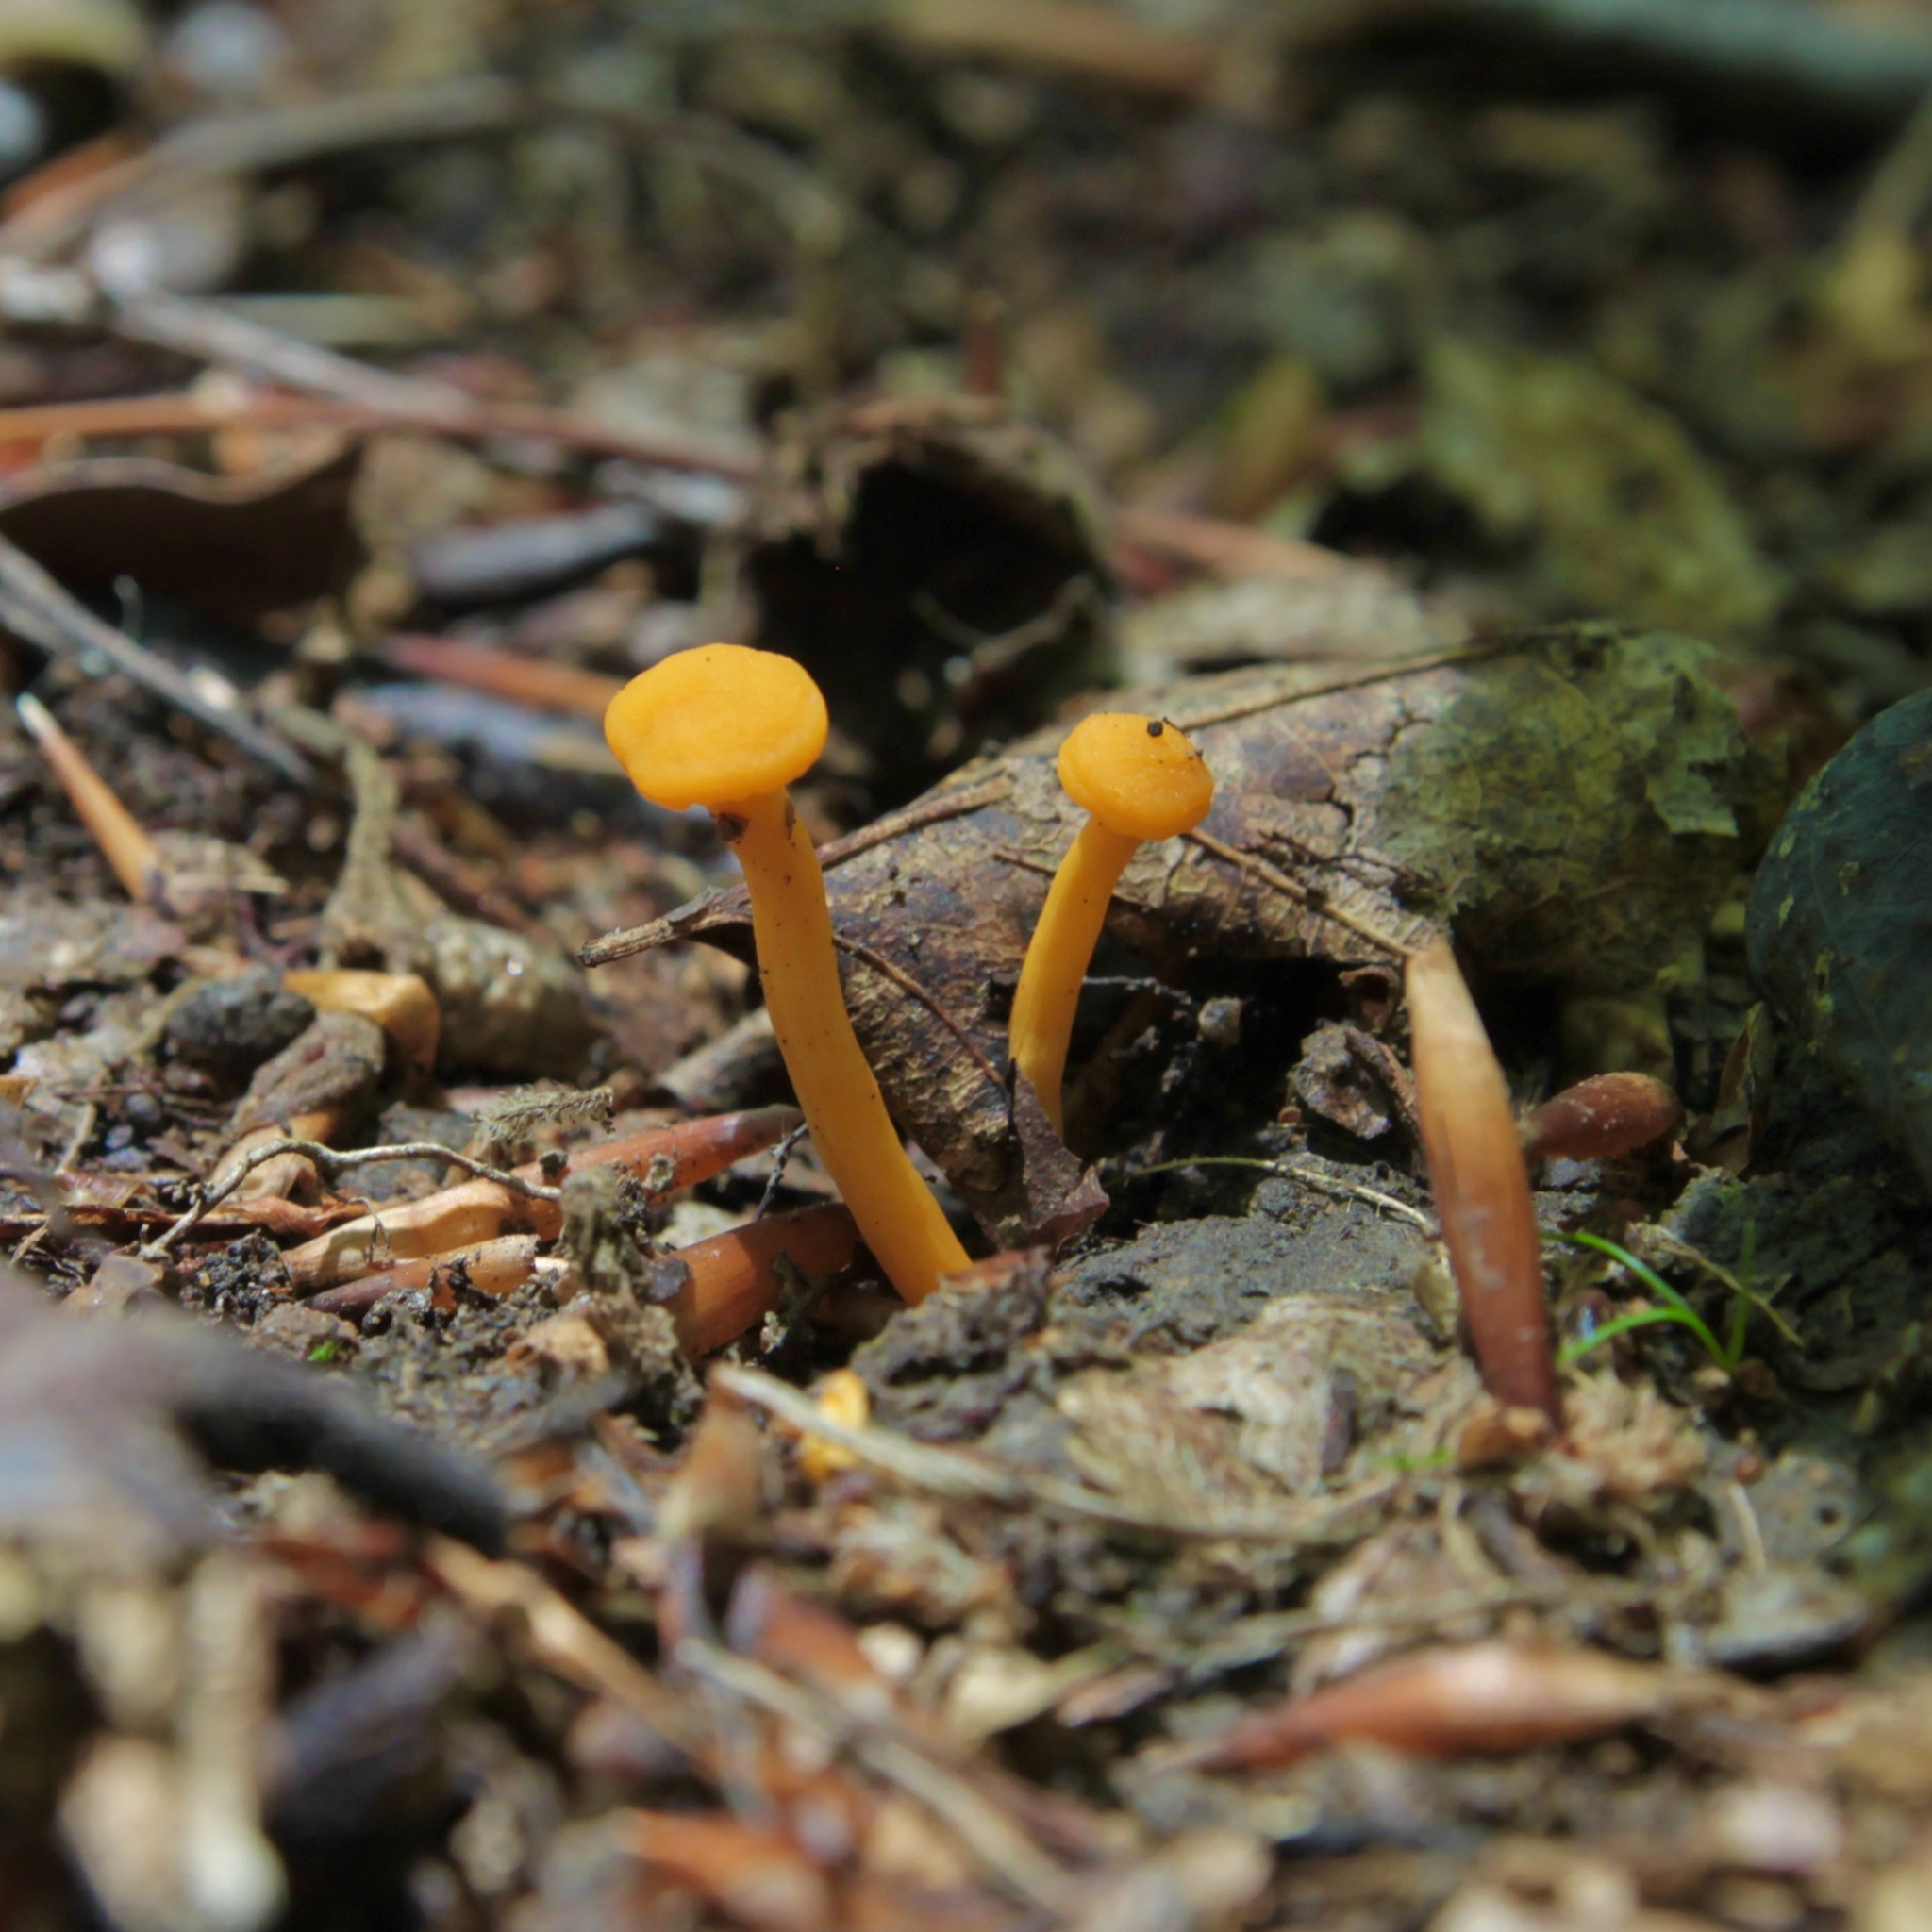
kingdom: Fungi
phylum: Basidiomycota
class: Agaricomycetes
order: Cantharellales
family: Hydnaceae
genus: Cantharellus
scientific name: Cantharellus minor
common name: Small chanterelle
